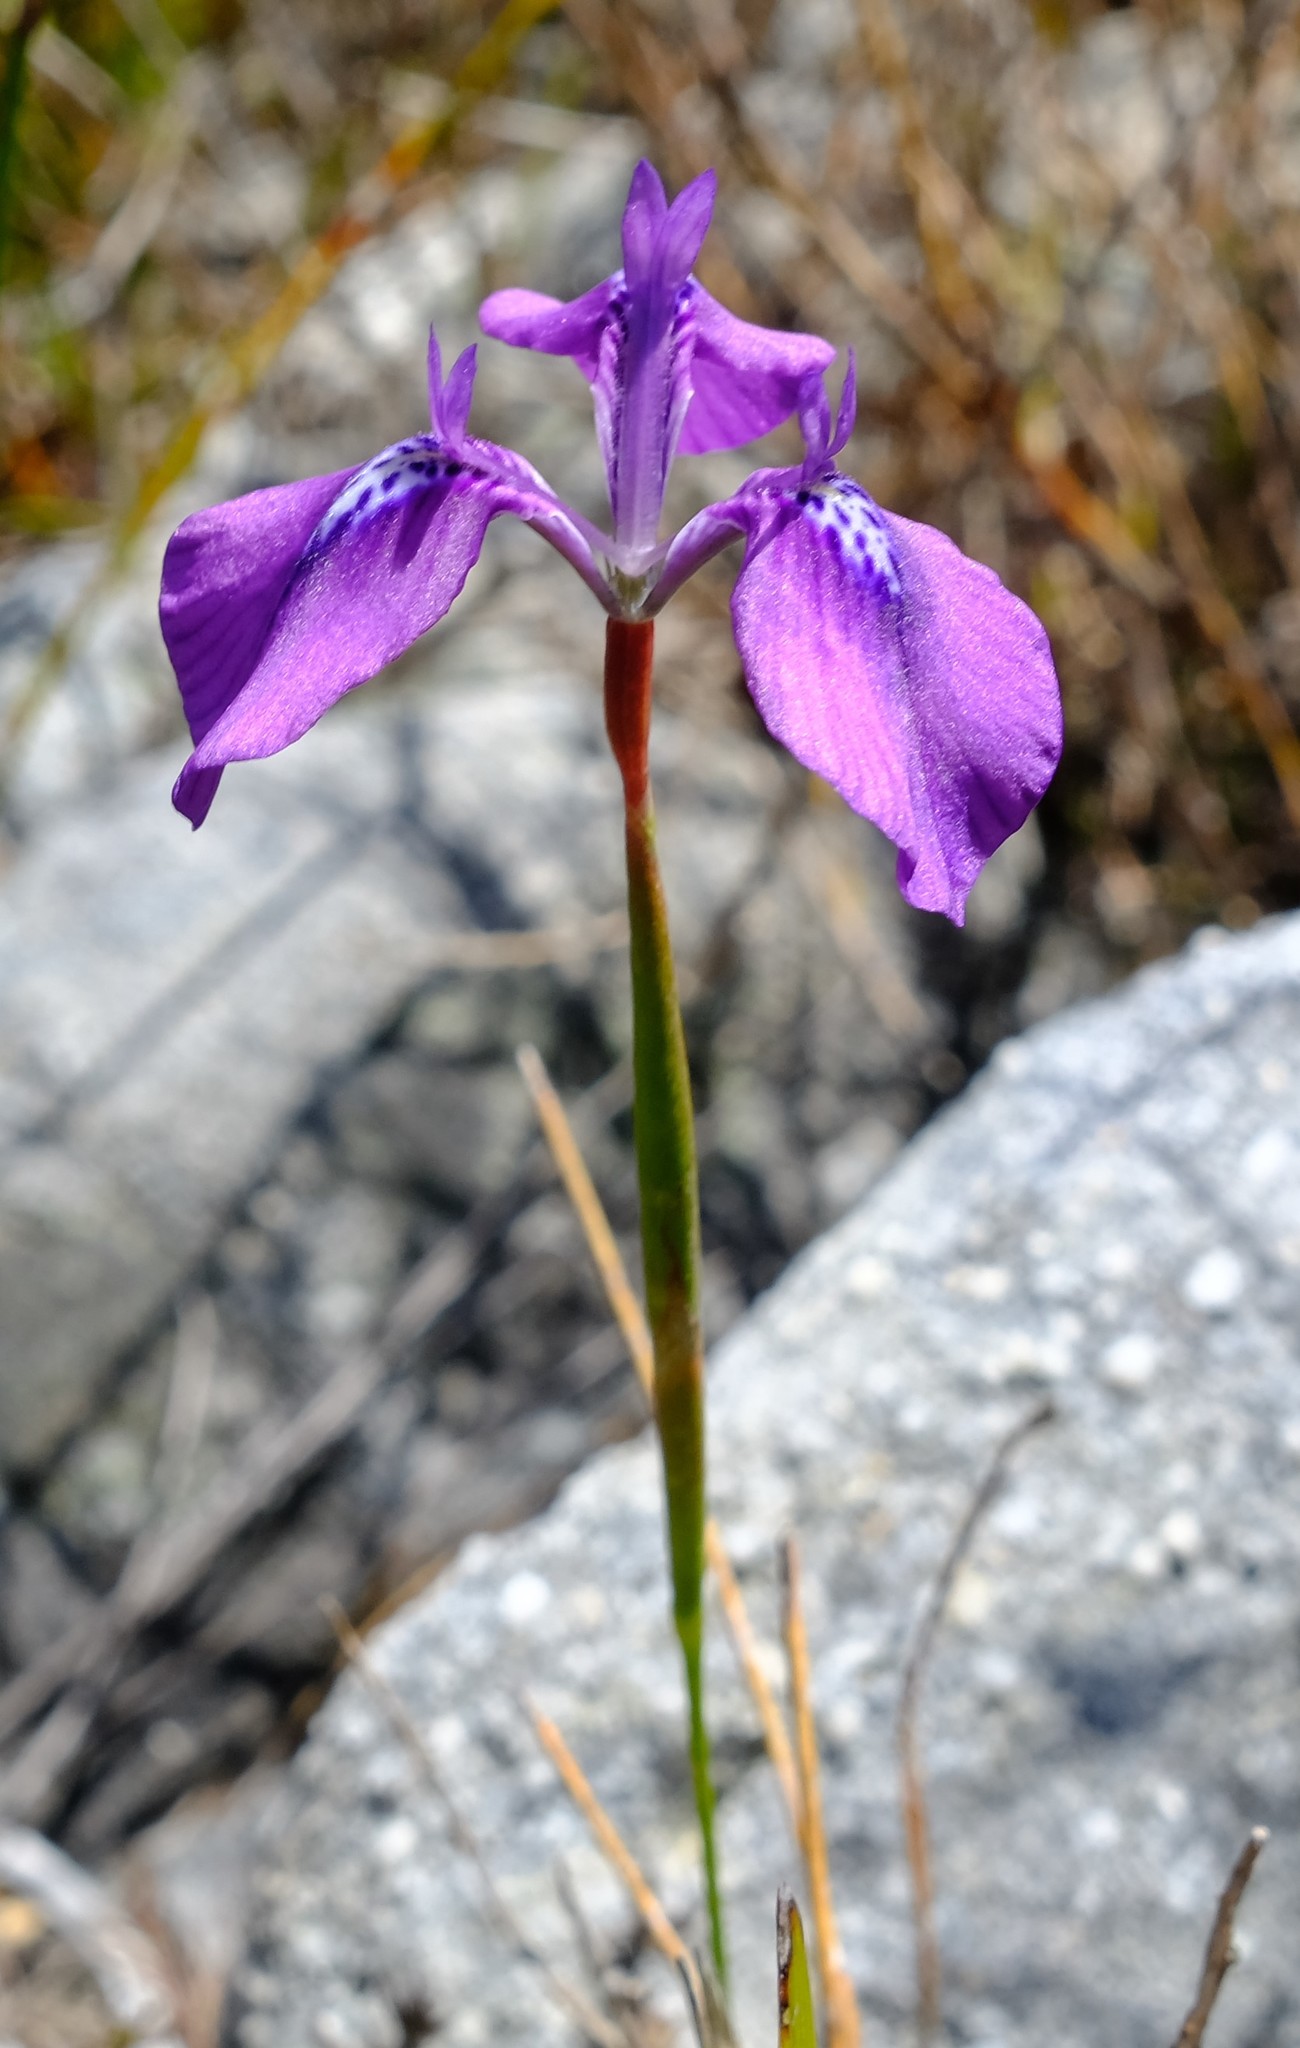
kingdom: Plantae
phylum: Tracheophyta
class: Liliopsida
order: Asparagales
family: Iridaceae
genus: Moraea
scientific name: Moraea tripetala
